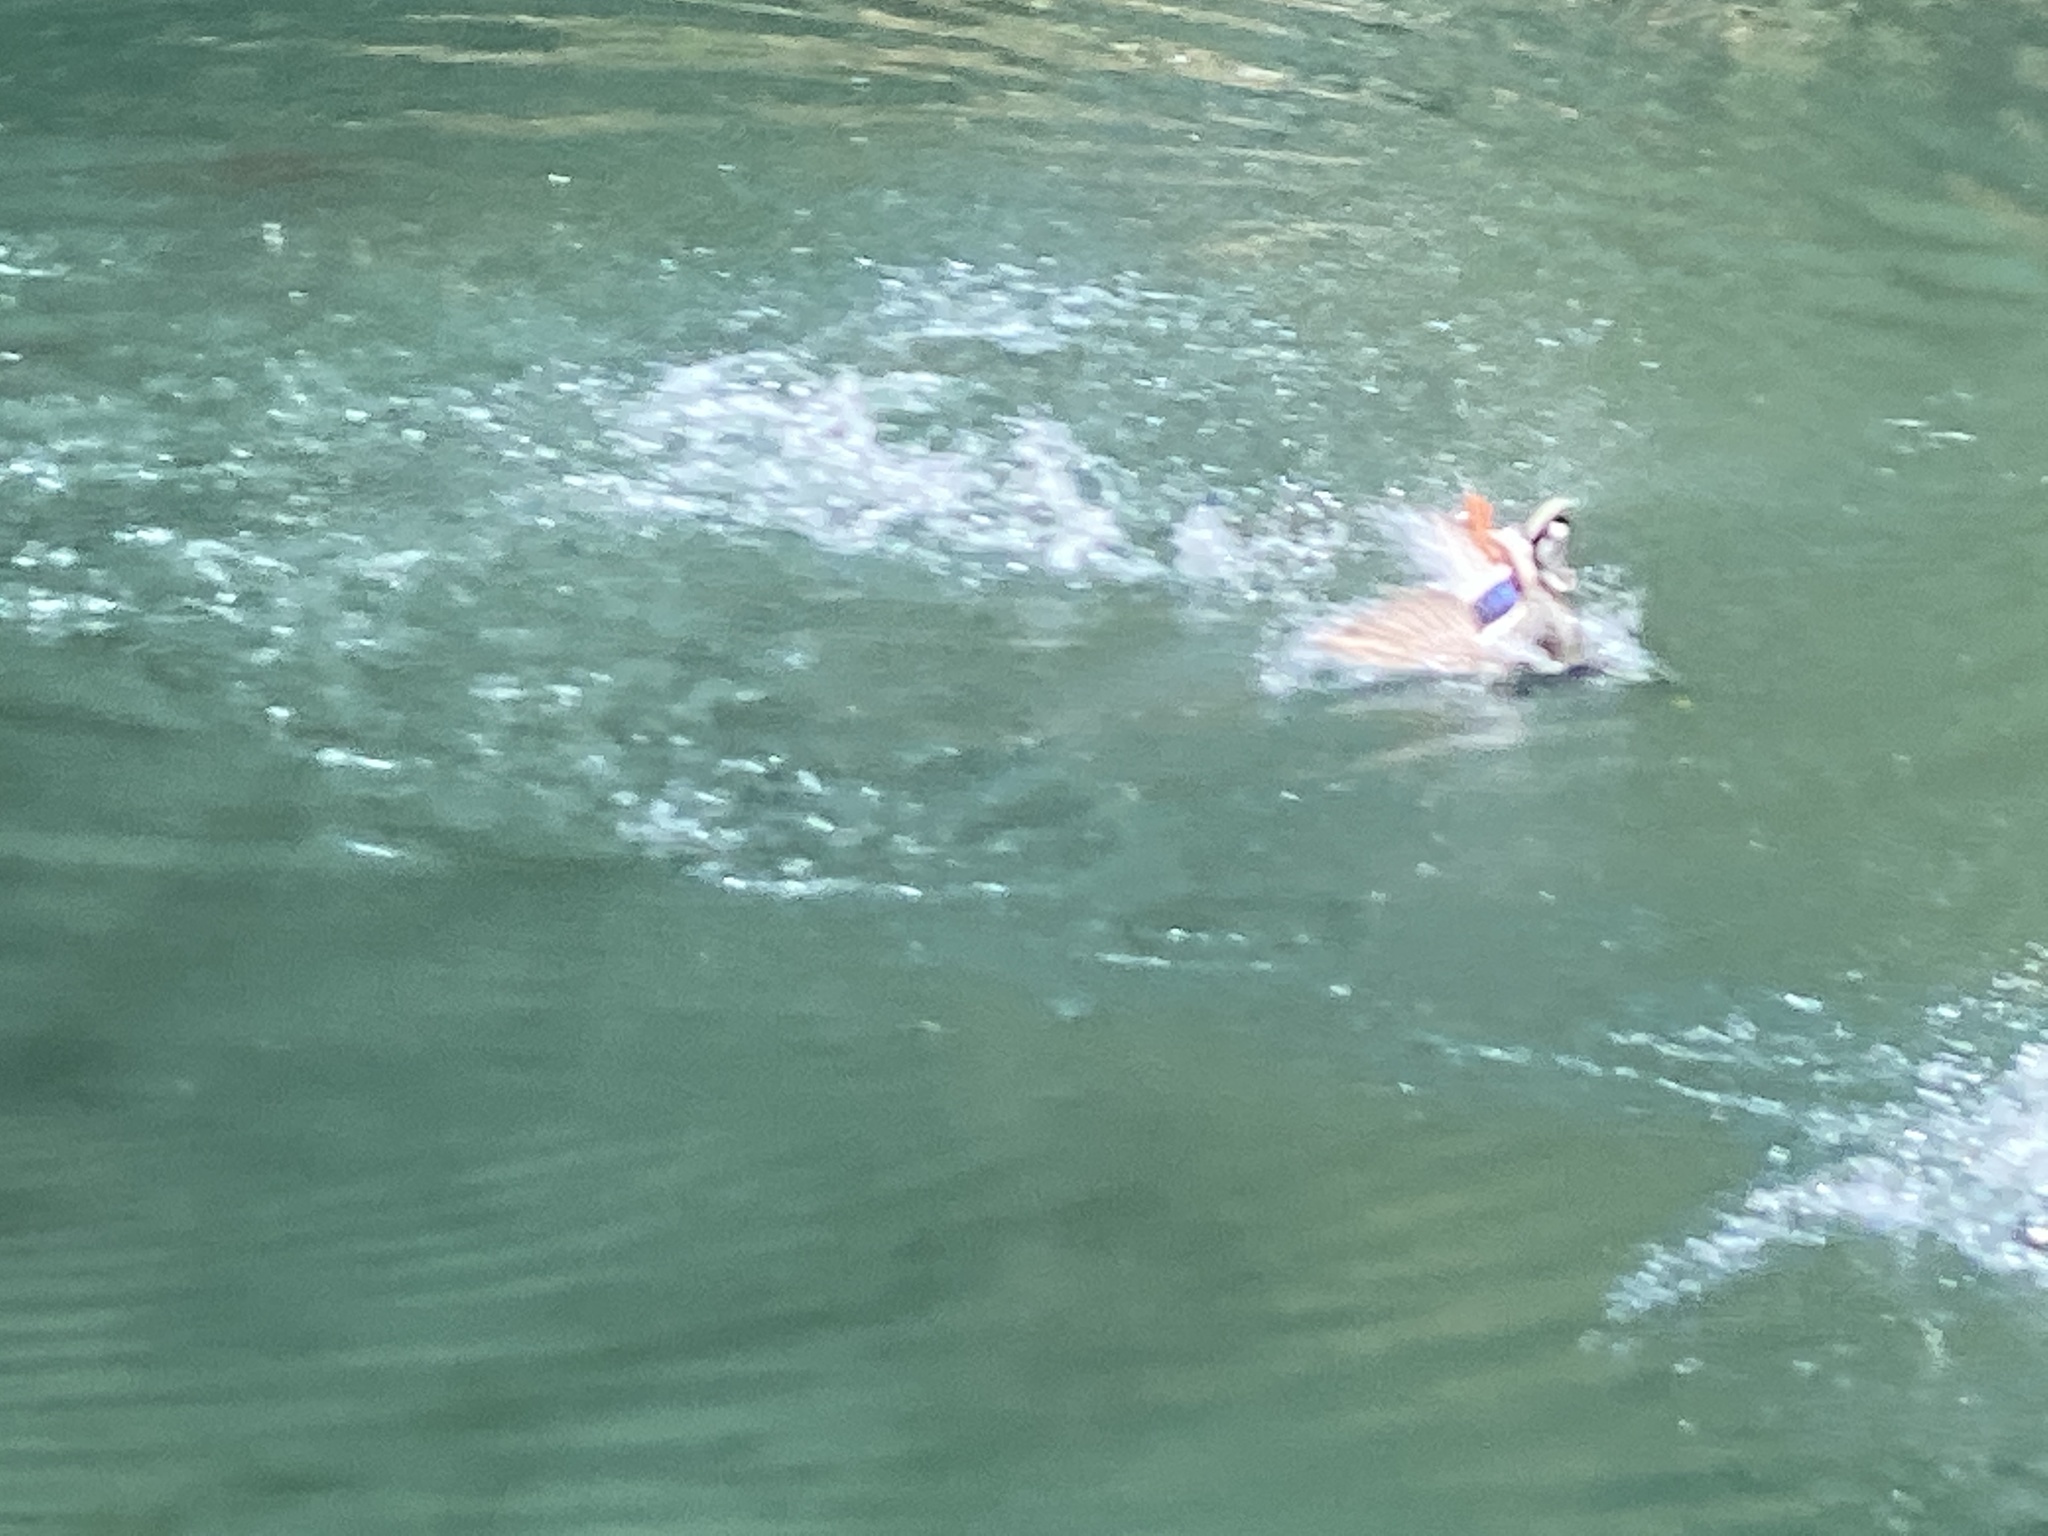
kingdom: Animalia
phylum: Chordata
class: Aves
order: Anseriformes
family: Anatidae
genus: Anas
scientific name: Anas platyrhynchos
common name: Mallard
